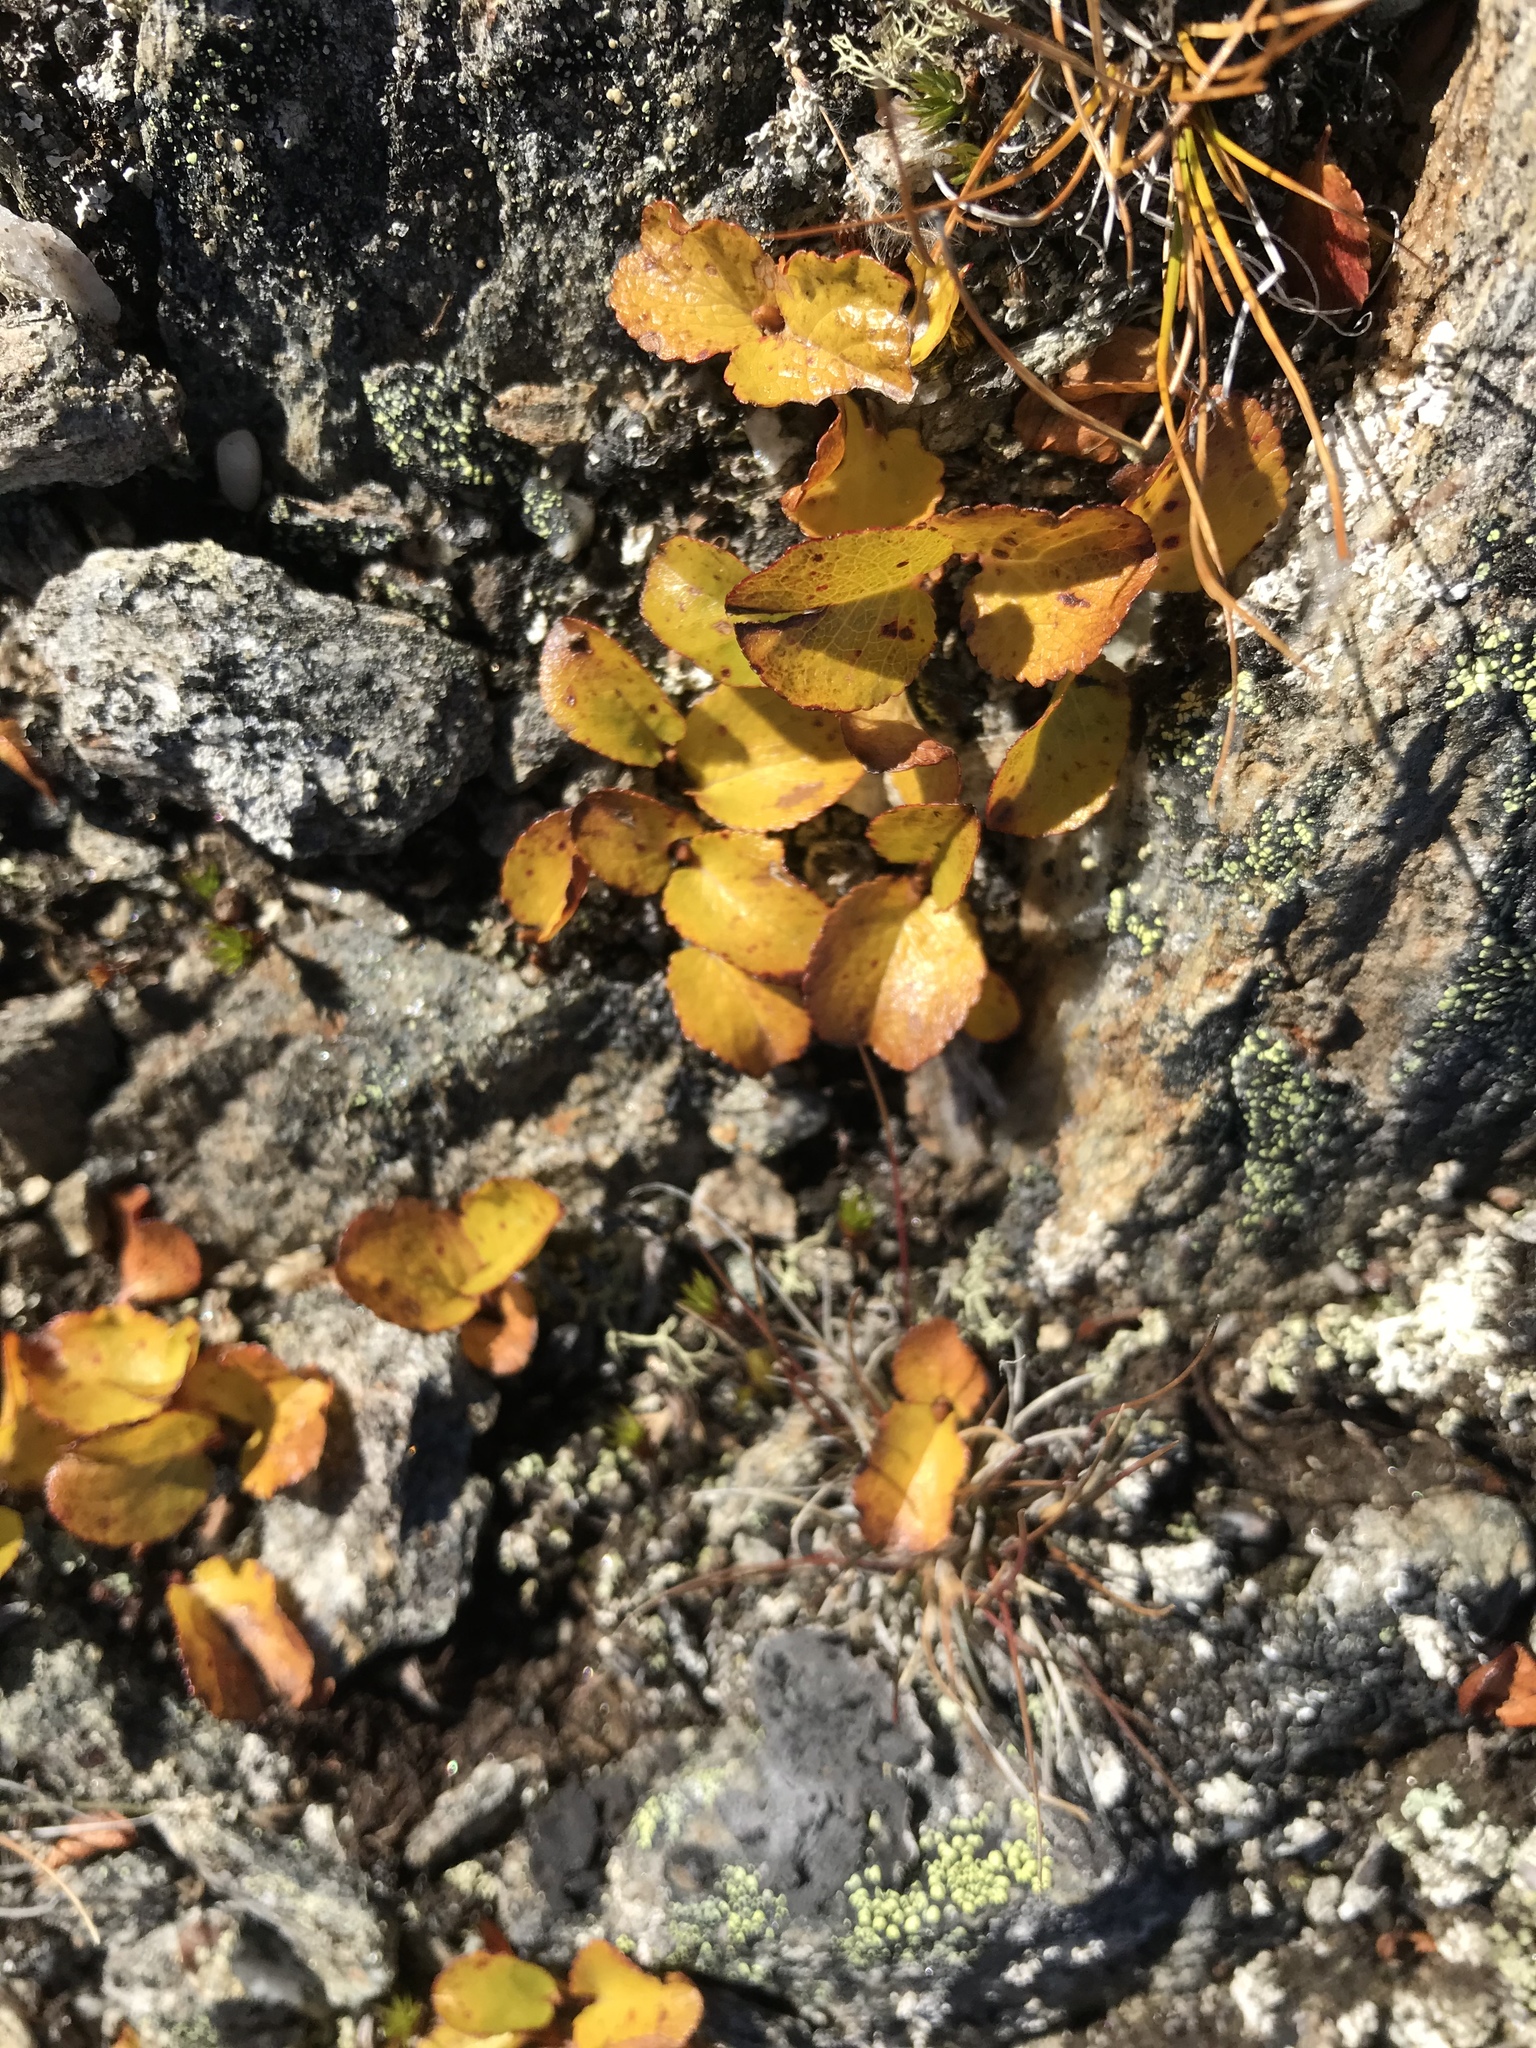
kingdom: Plantae
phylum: Tracheophyta
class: Magnoliopsida
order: Malpighiales
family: Salicaceae
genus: Salix
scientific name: Salix herbacea
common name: Dwarf willow
